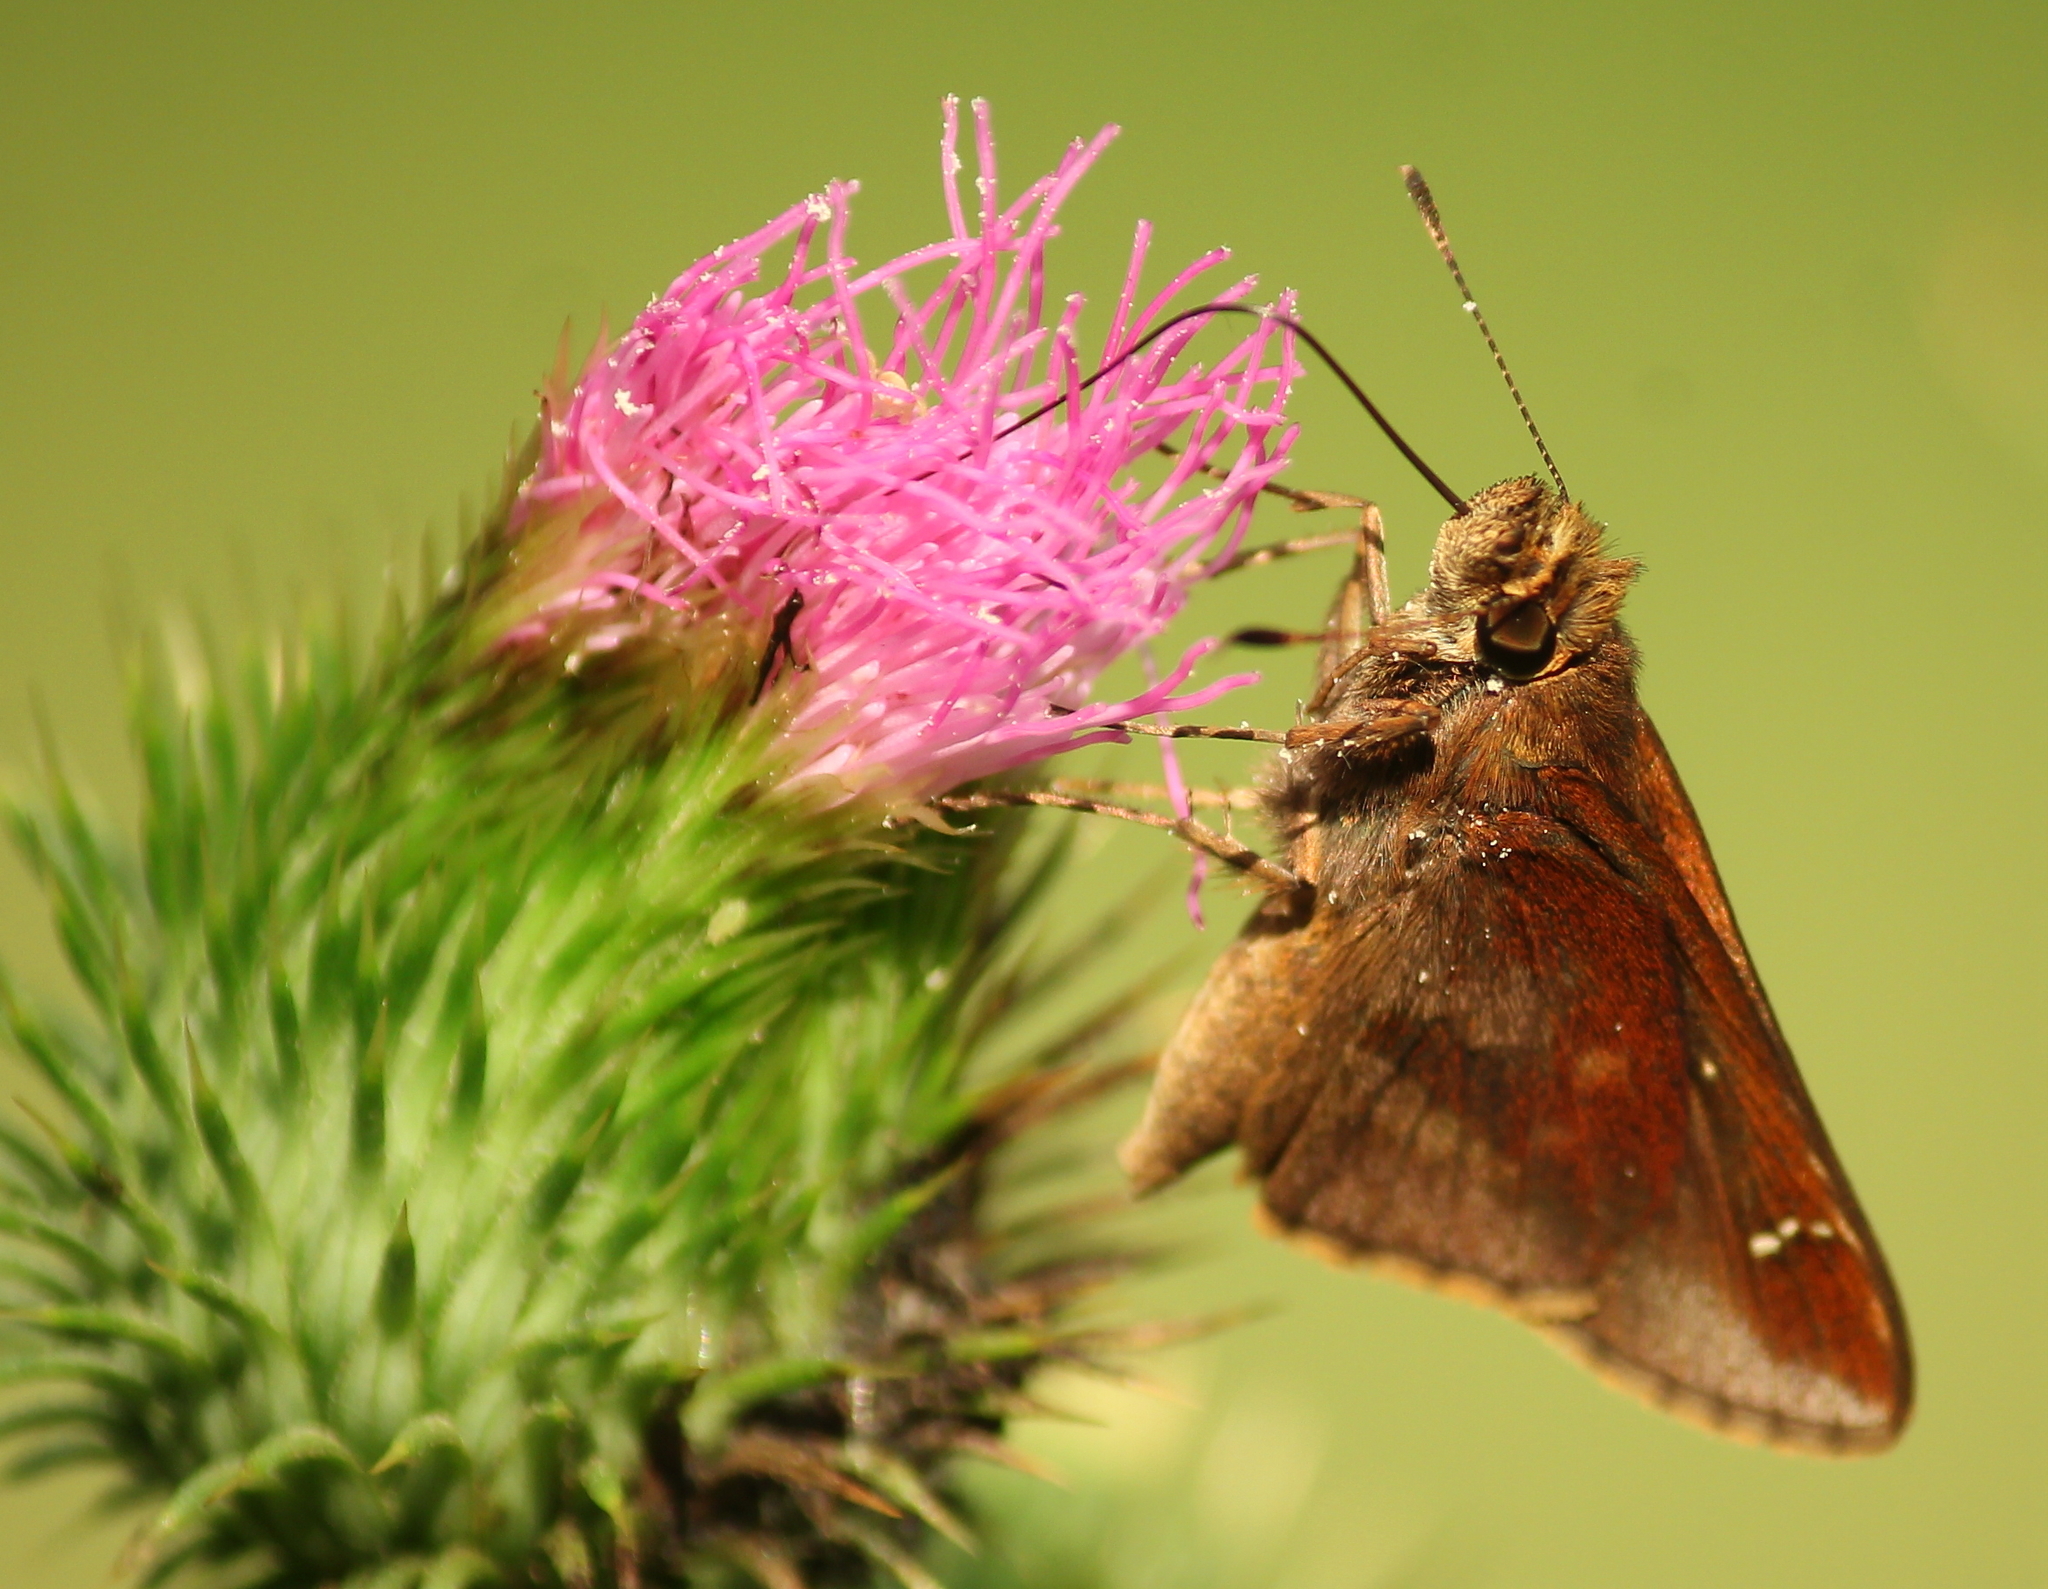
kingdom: Animalia
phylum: Arthropoda
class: Insecta
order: Lepidoptera
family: Hesperiidae
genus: Lerema
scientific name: Lerema accius
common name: Clouded skipper
